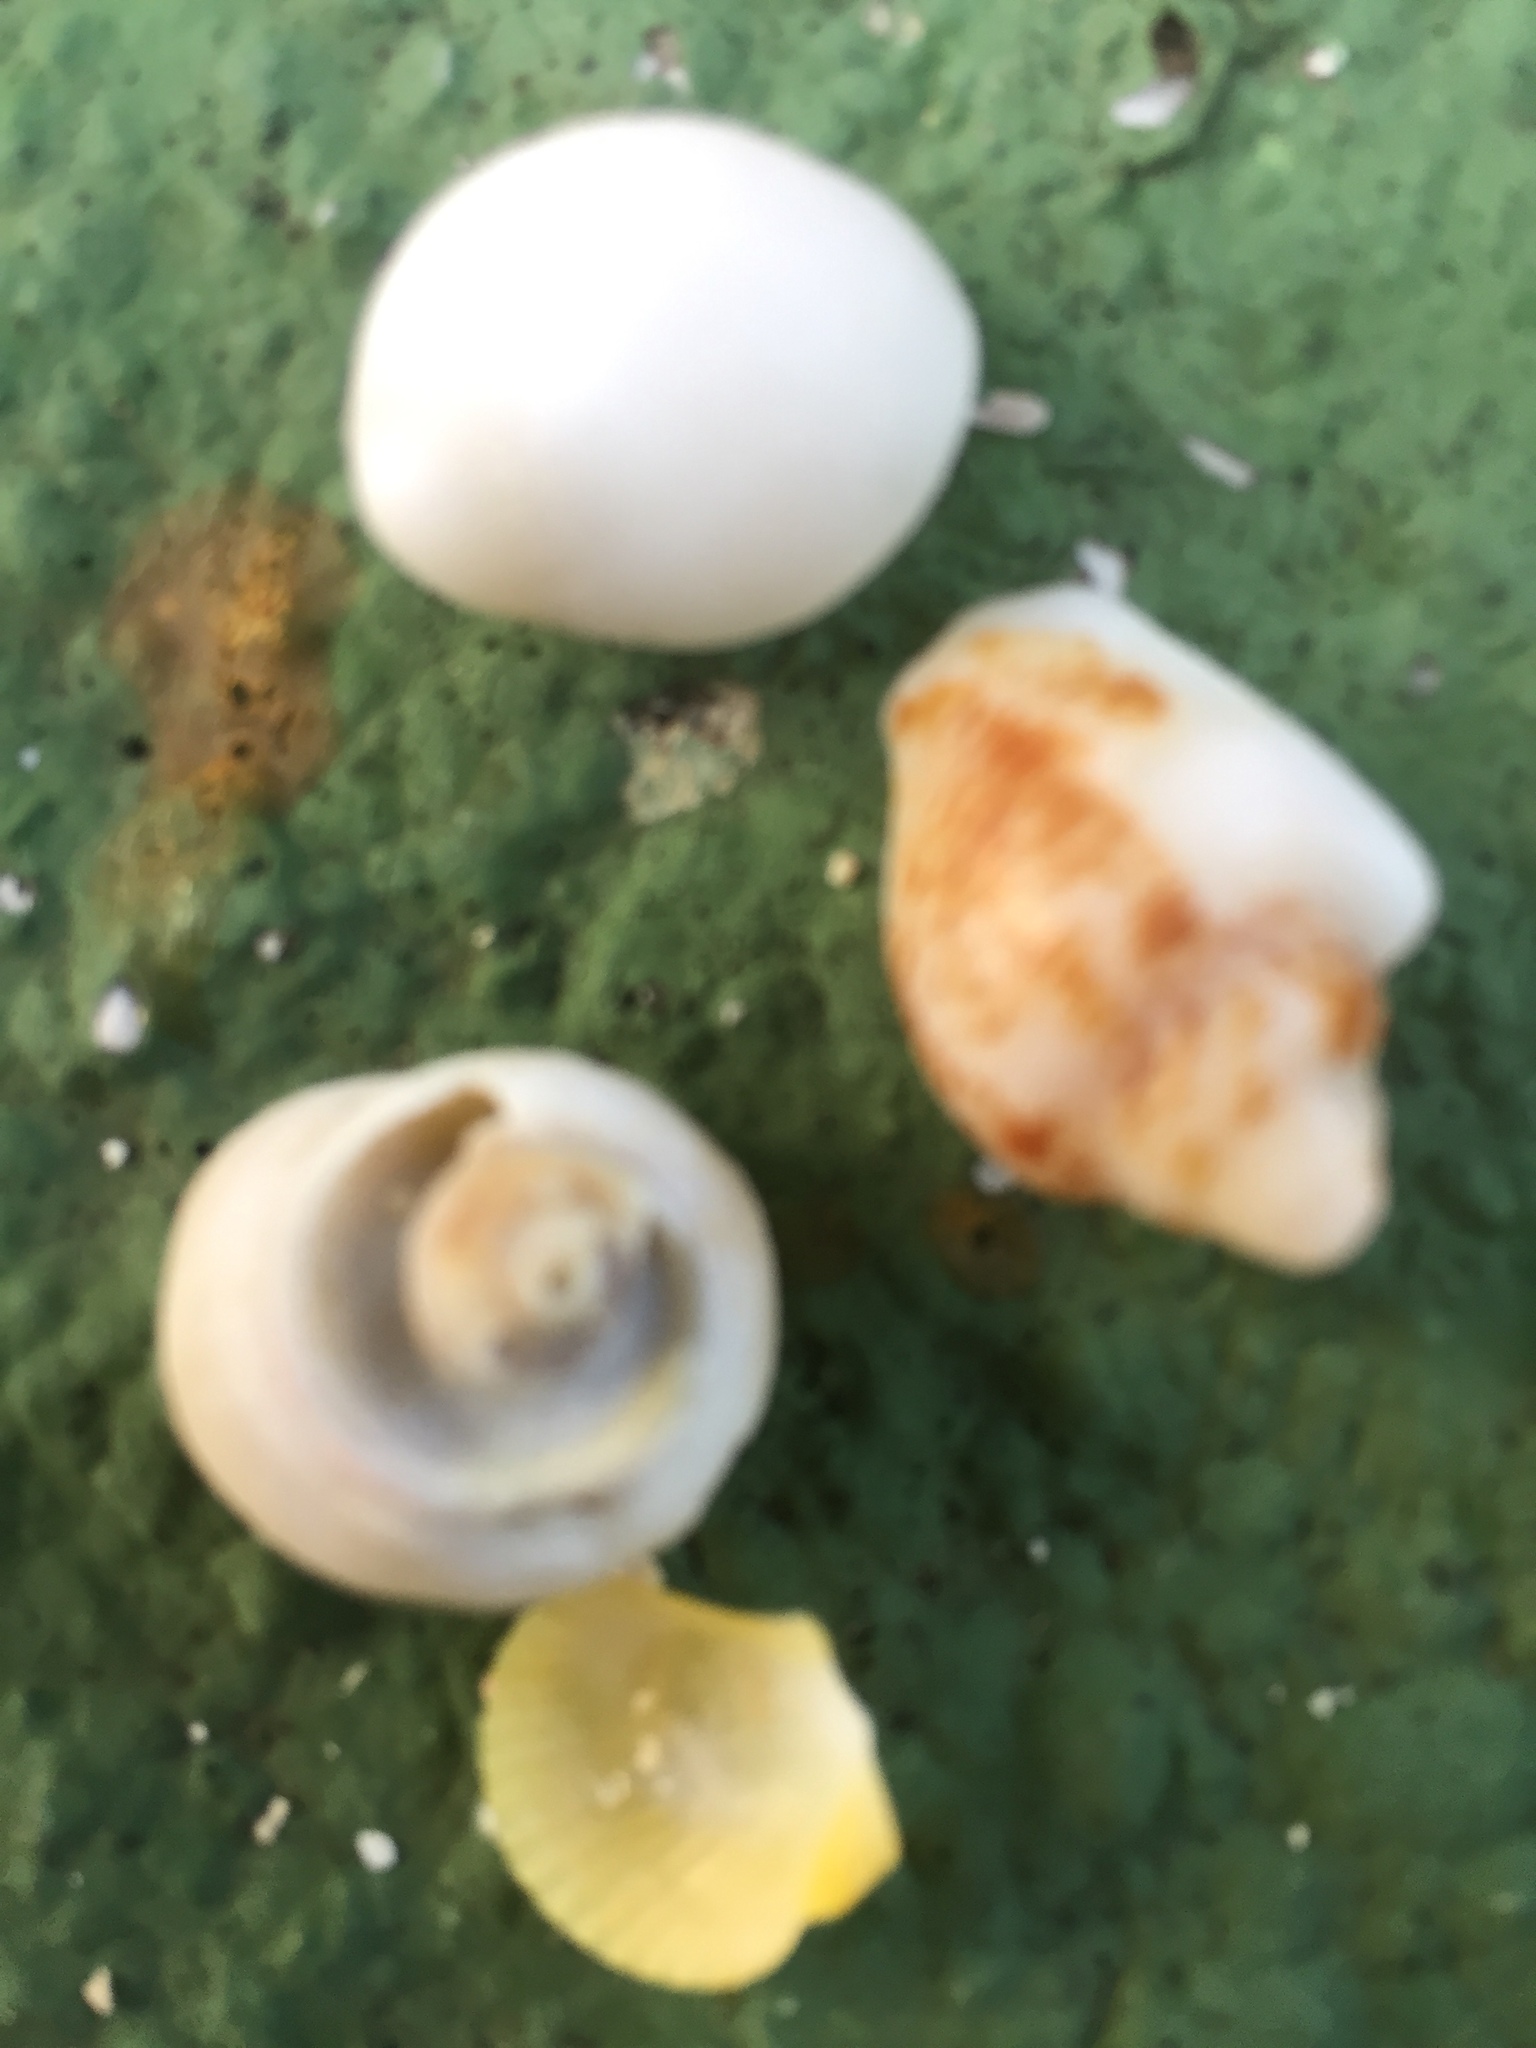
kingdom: Animalia
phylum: Mollusca
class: Bivalvia
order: Pectinida
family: Pectinidae
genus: Lindapecten
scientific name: Lindapecten muscosus
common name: Rough scallop
